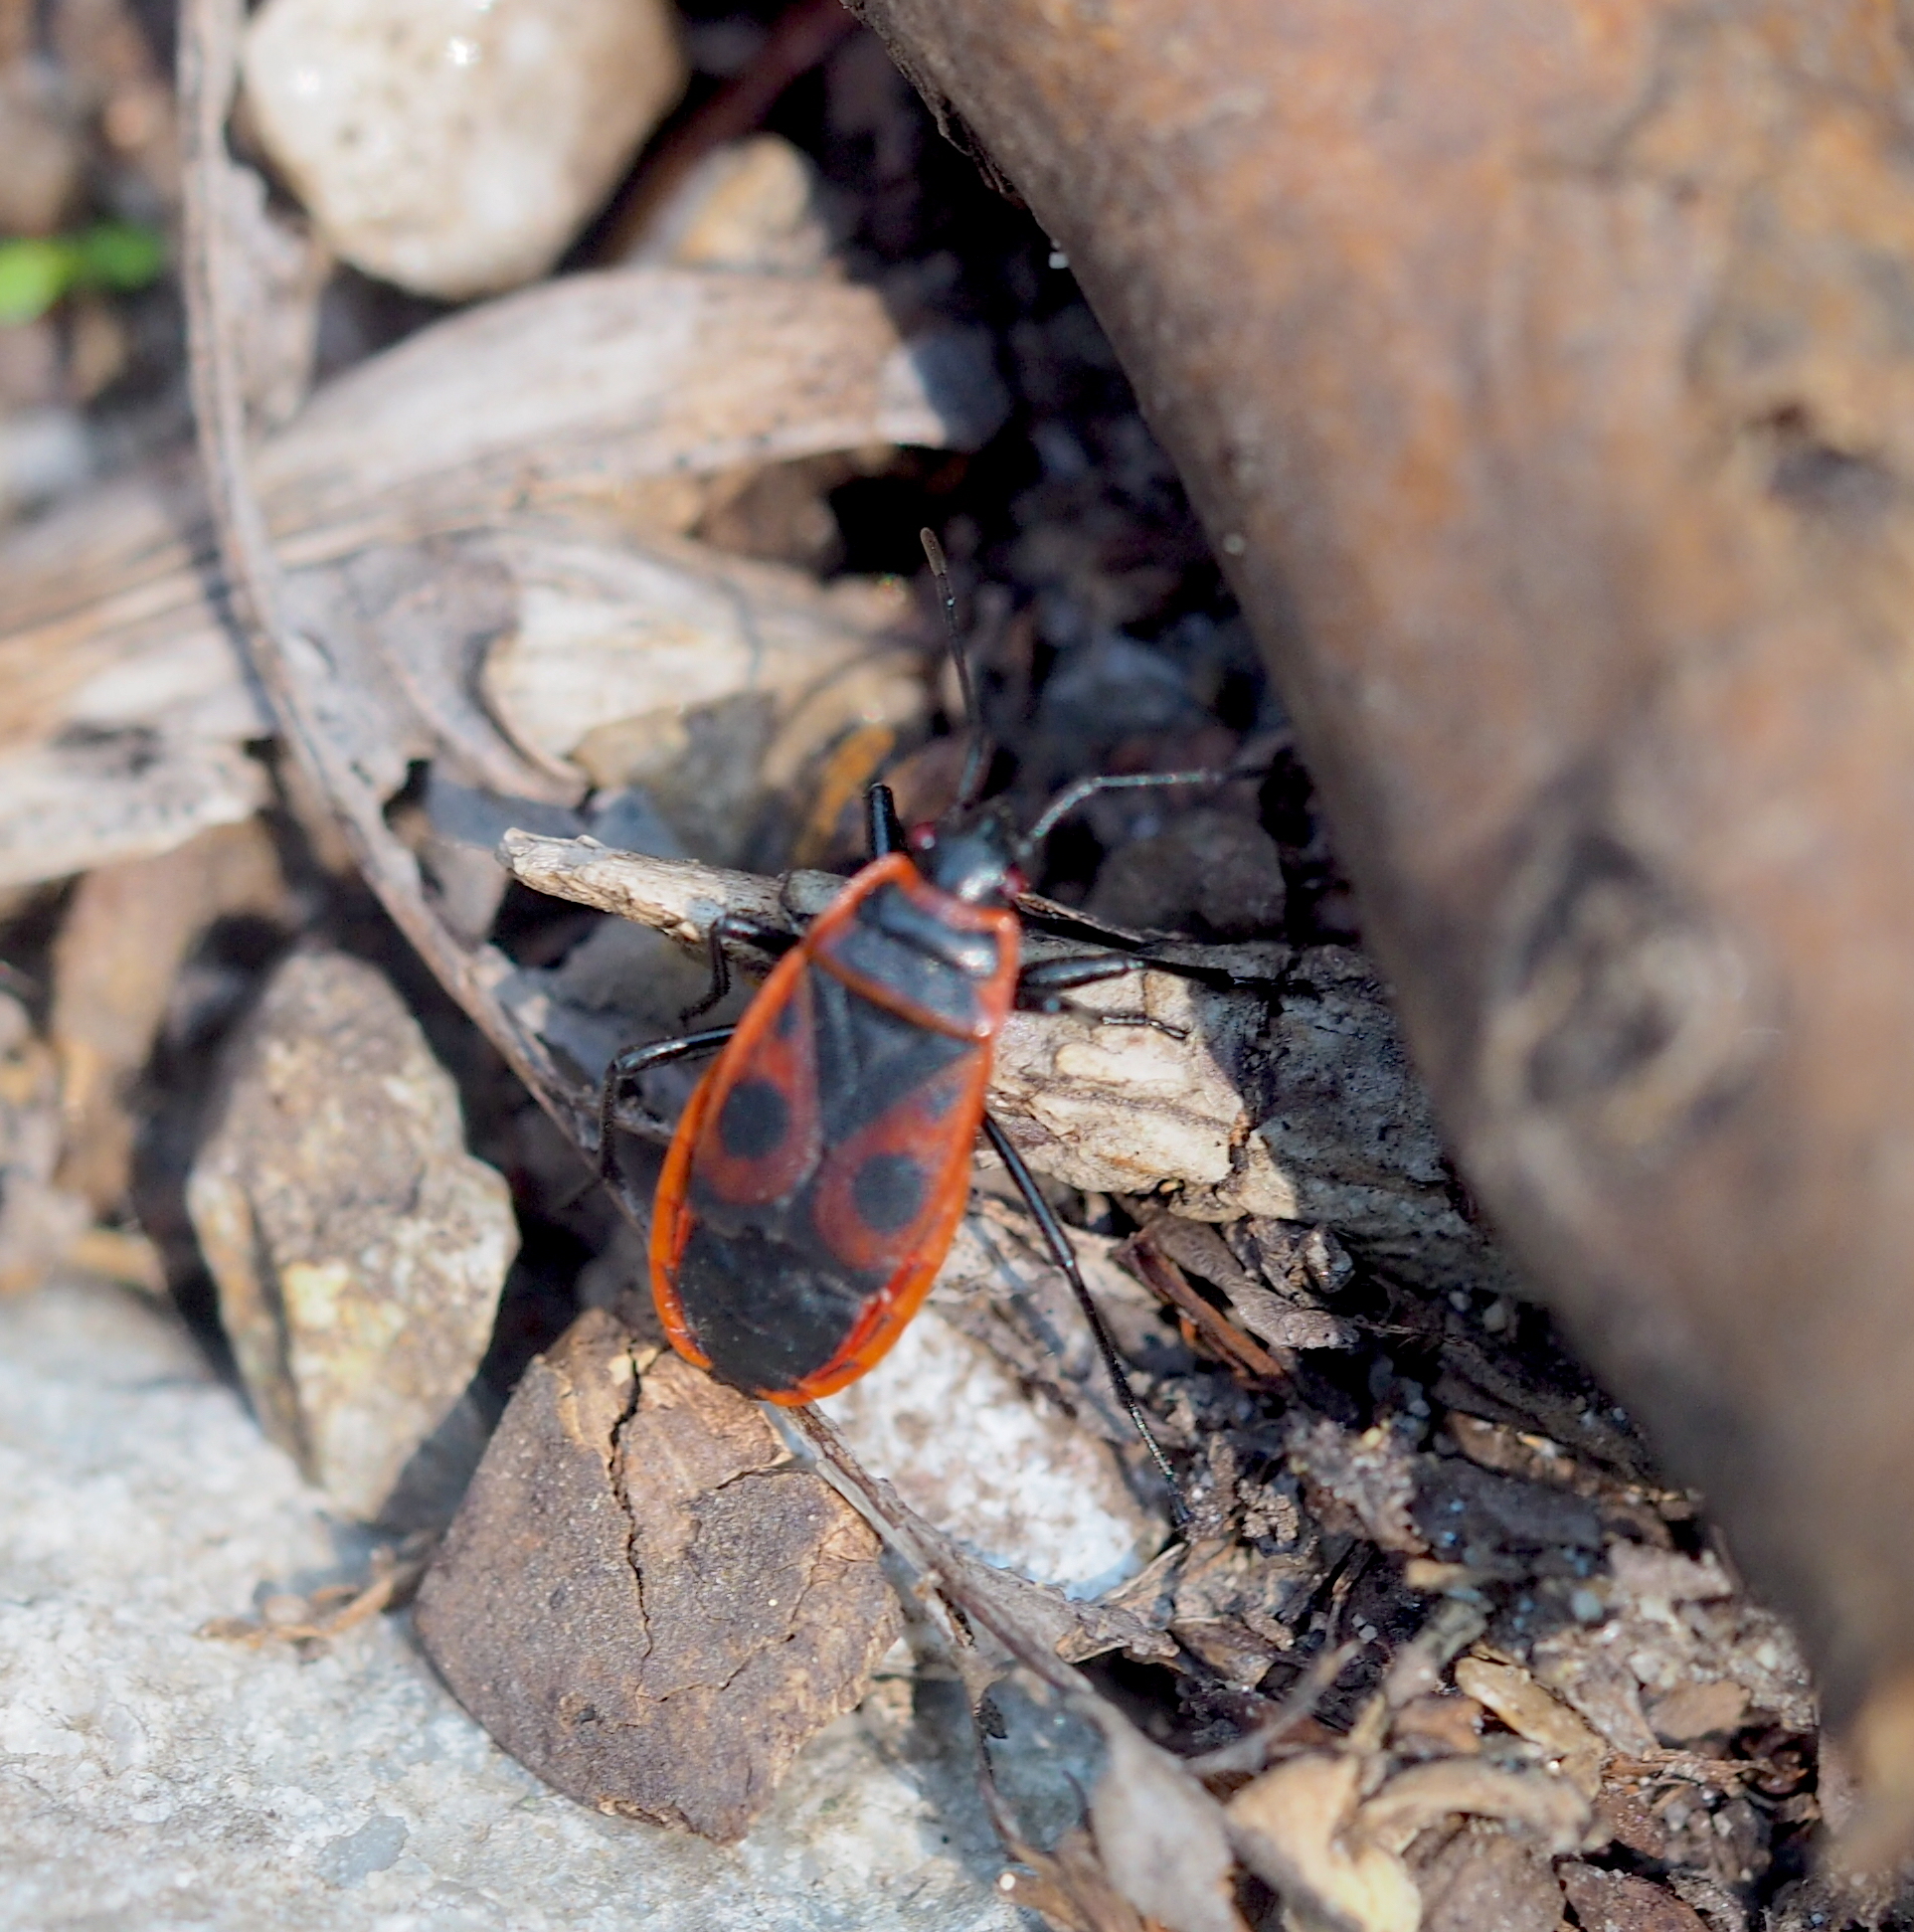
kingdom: Animalia
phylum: Arthropoda
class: Insecta
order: Hemiptera
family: Pyrrhocoridae
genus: Pyrrhocoris
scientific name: Pyrrhocoris apterus
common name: Firebug
